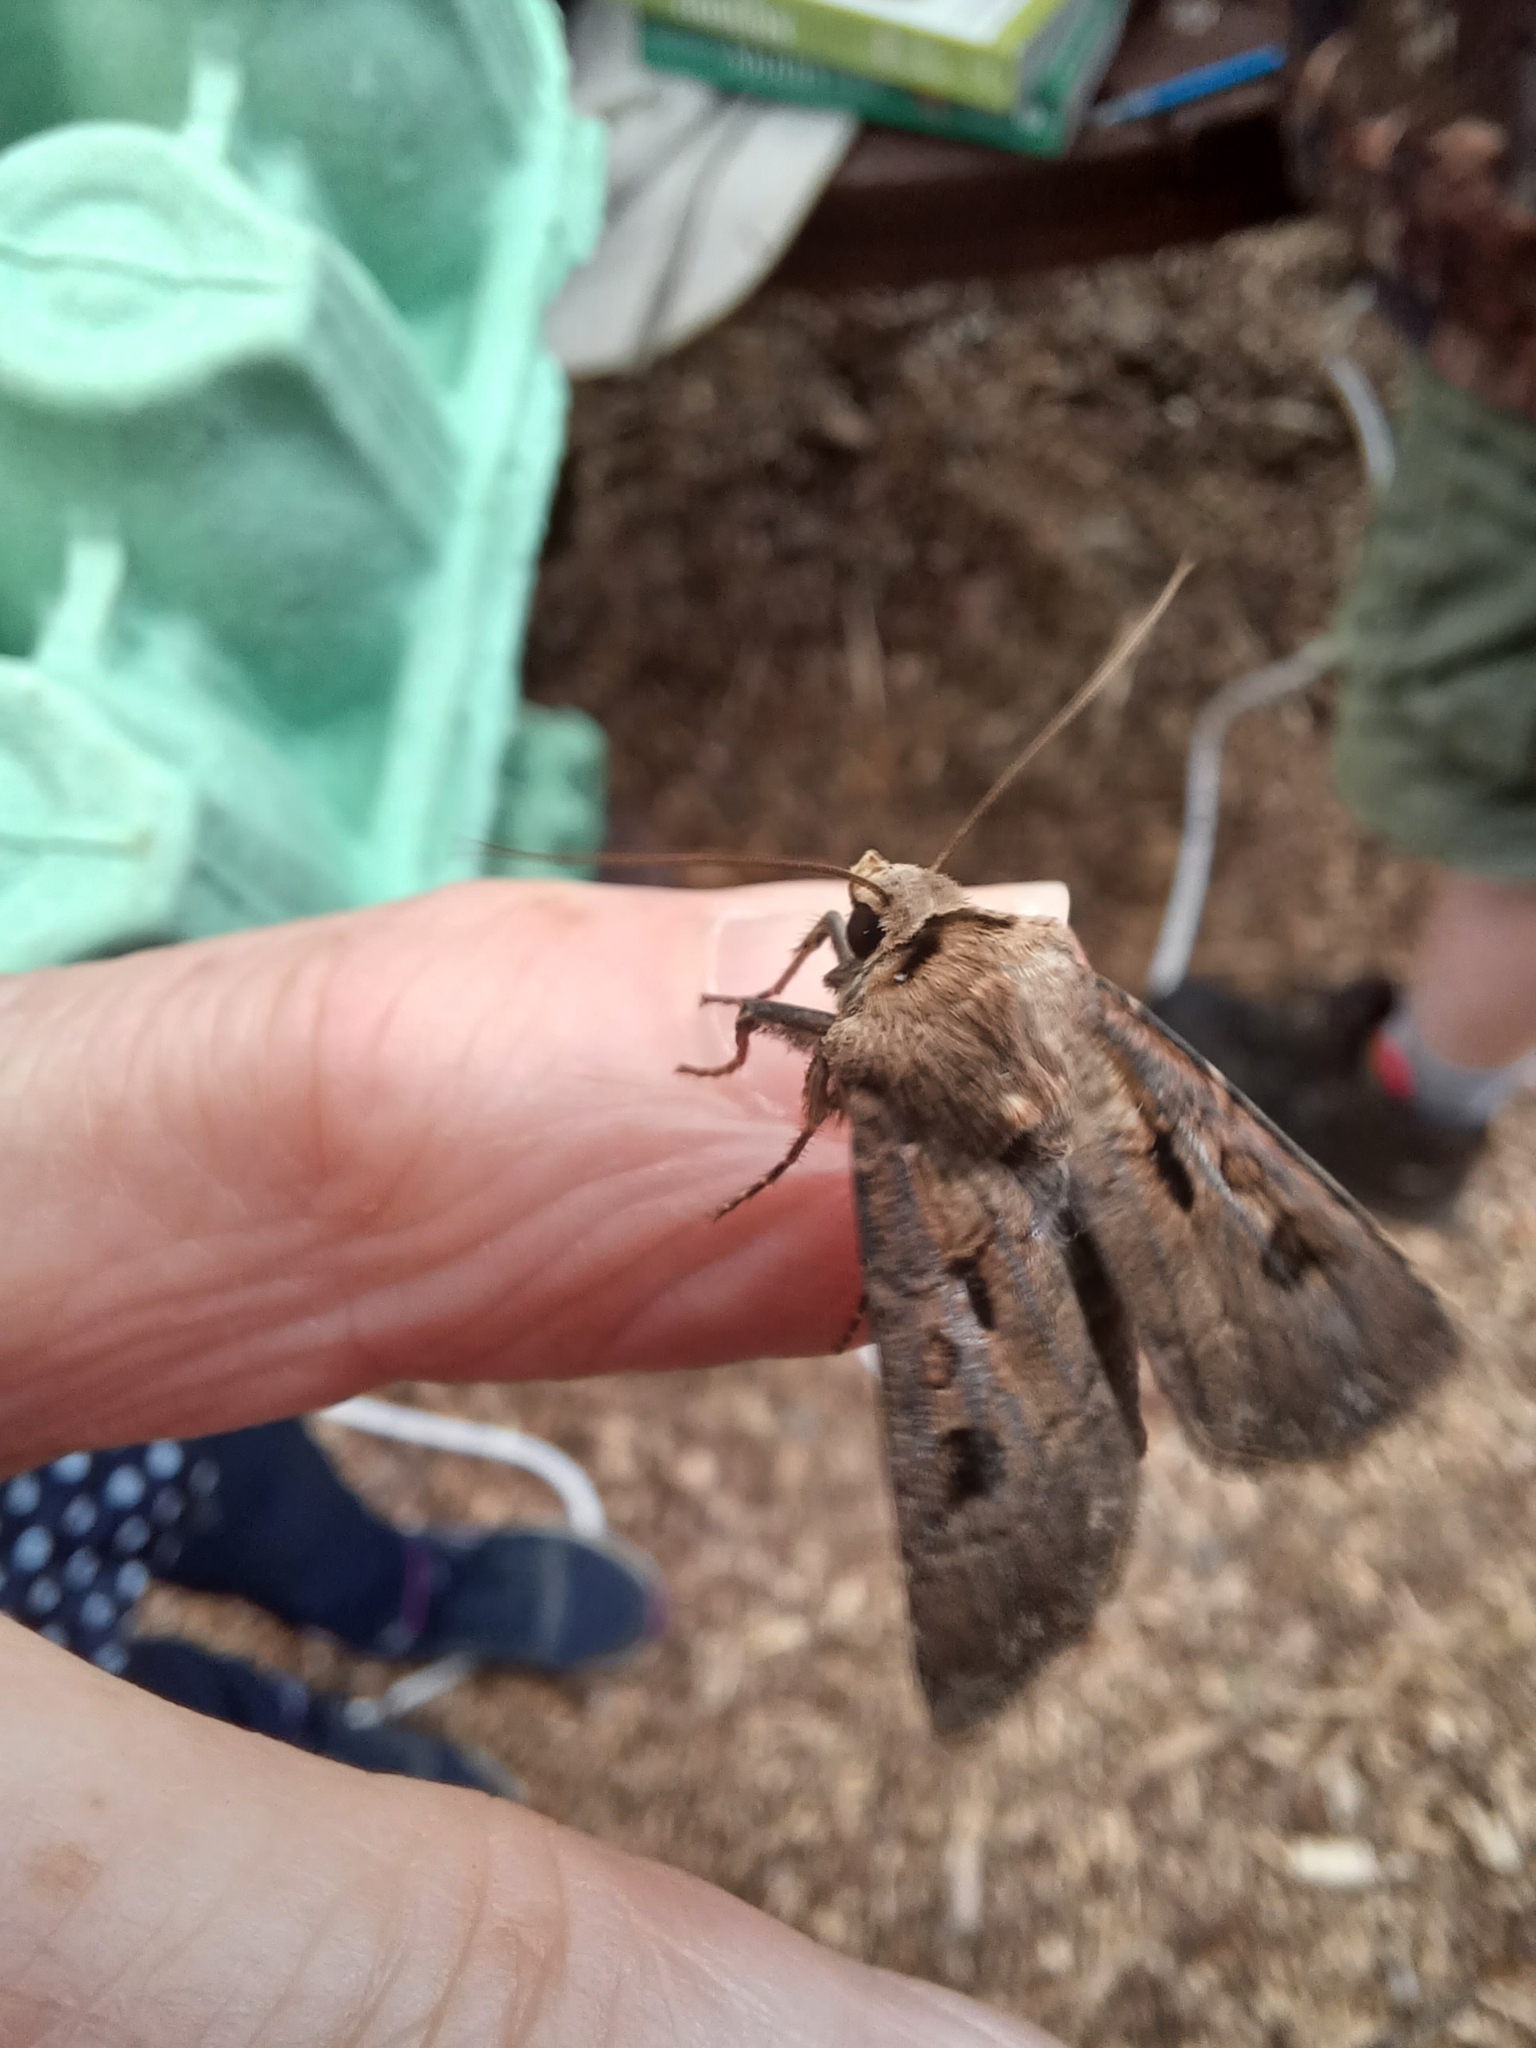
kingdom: Animalia
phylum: Arthropoda
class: Insecta
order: Lepidoptera
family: Noctuidae
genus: Agrotis
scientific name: Agrotis exclamationis
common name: Heart and dart
